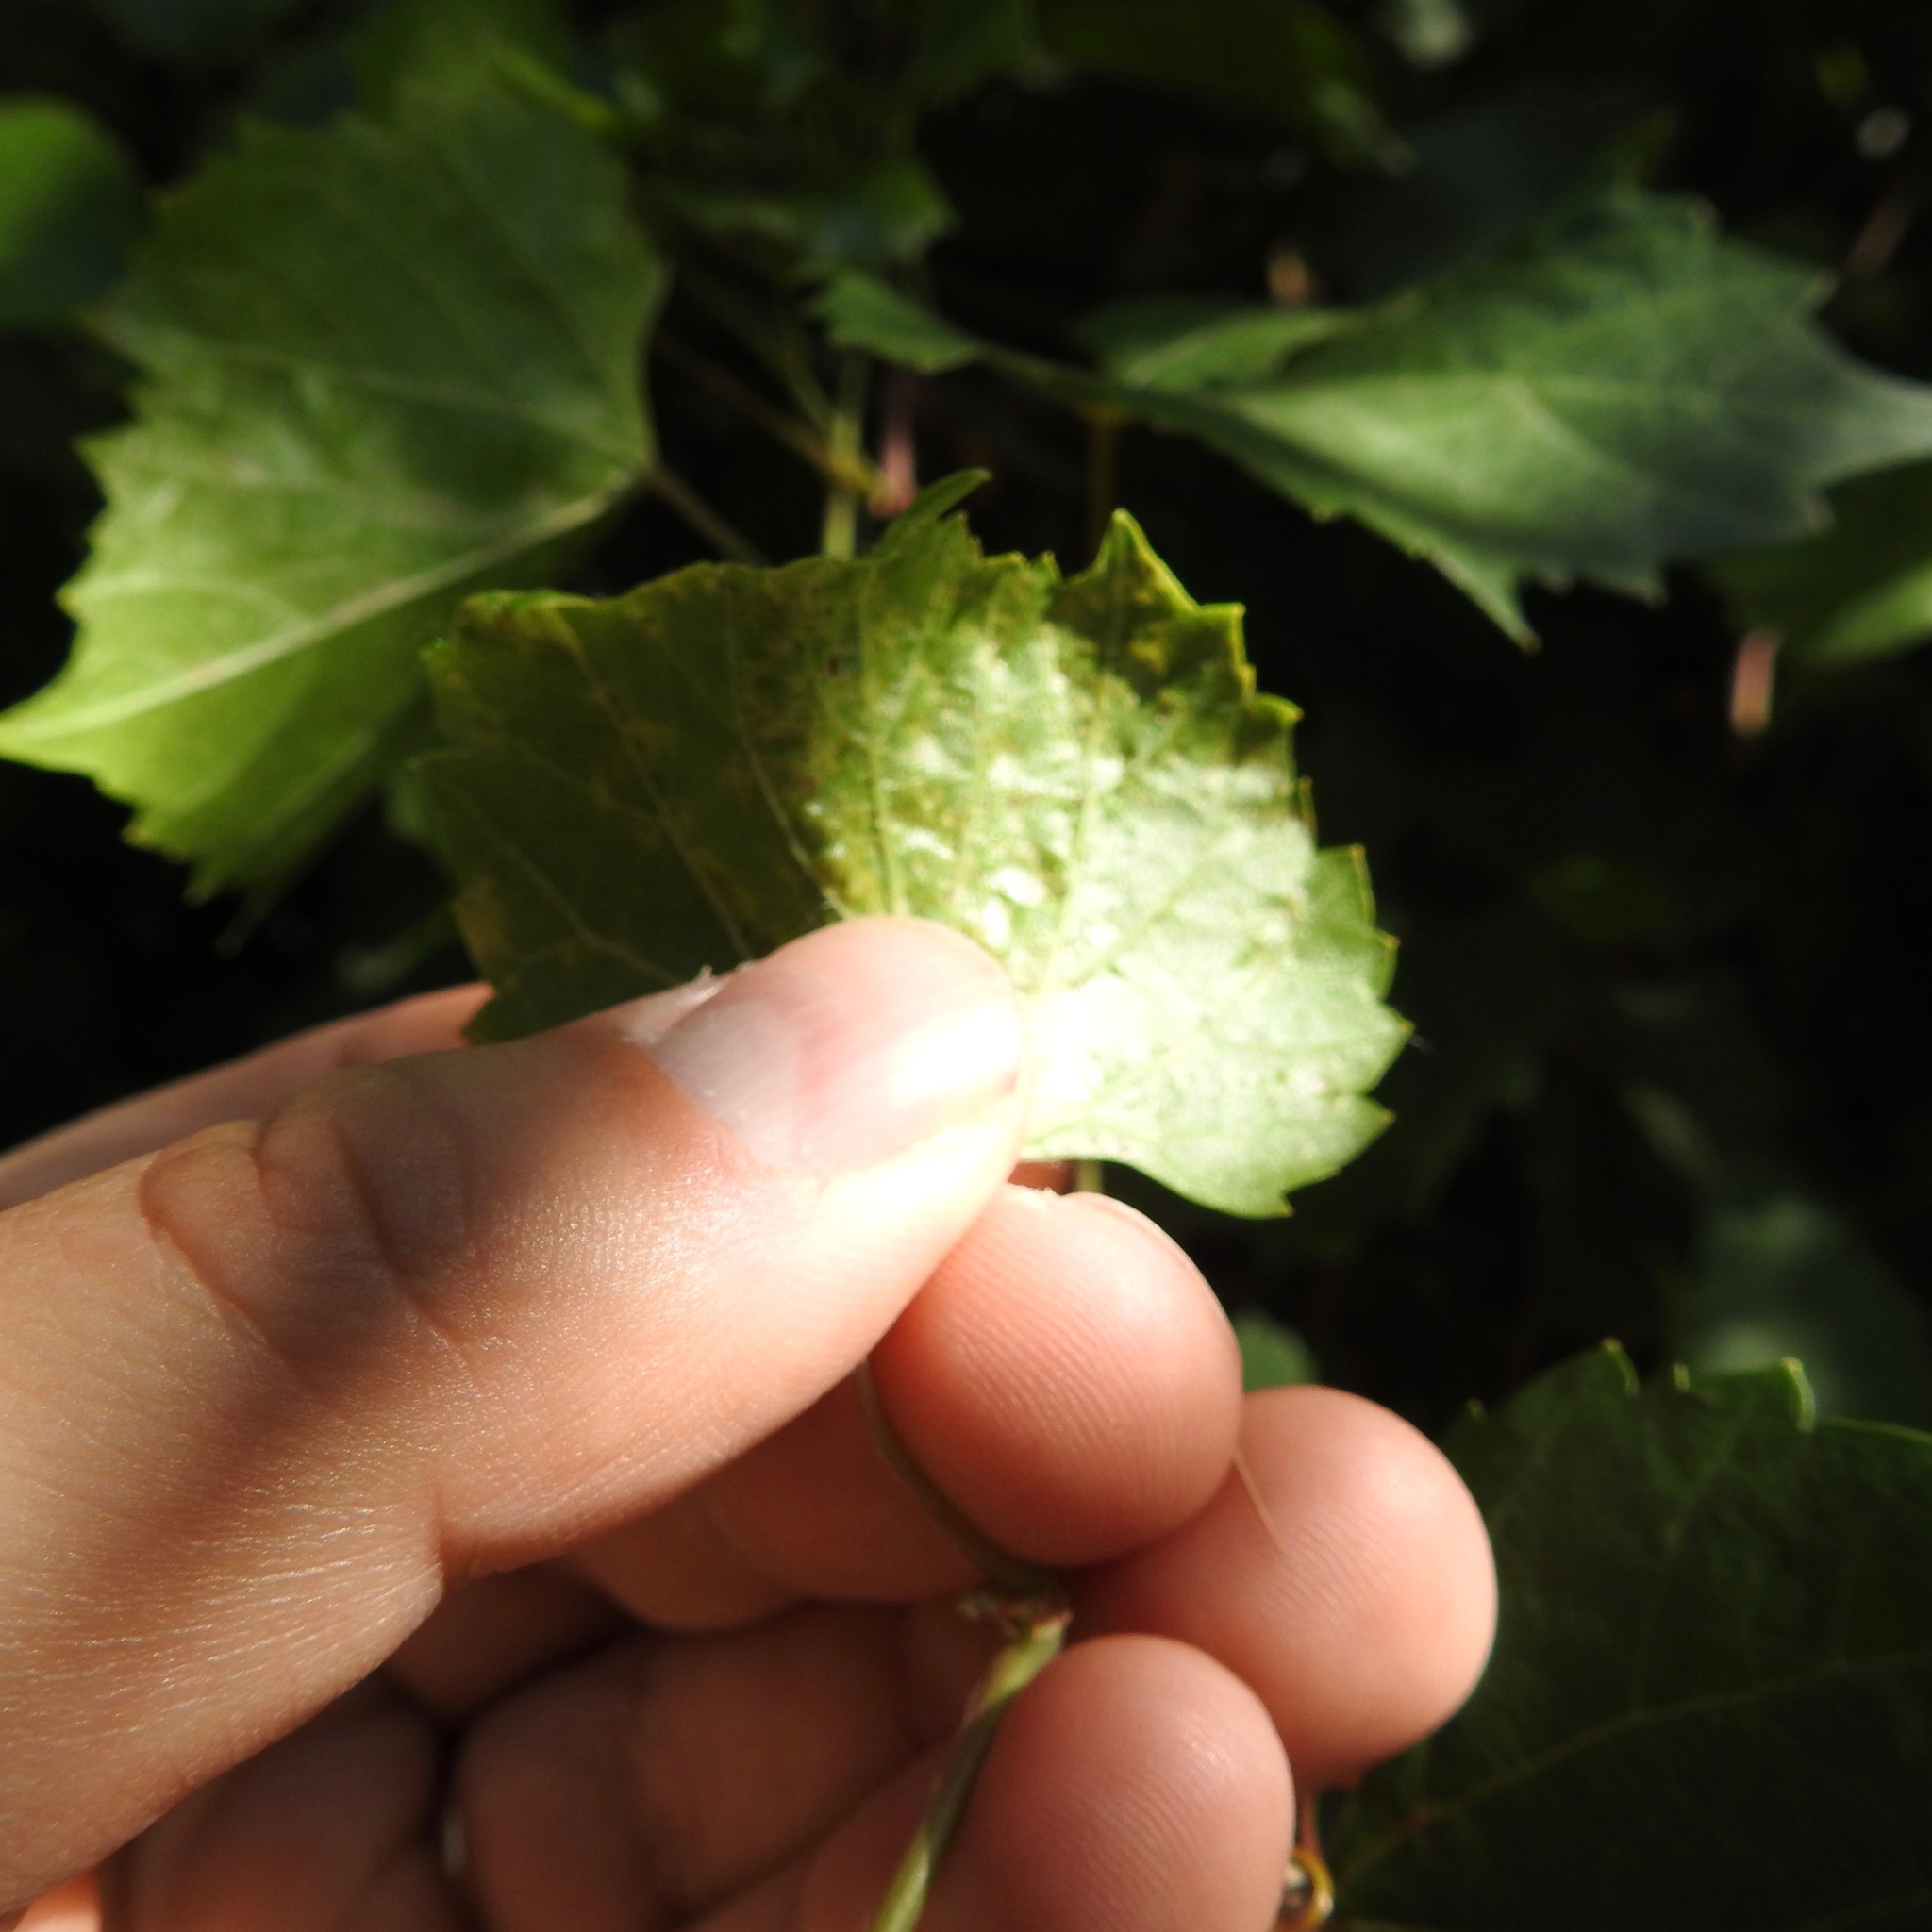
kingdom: Animalia
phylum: Arthropoda
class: Arachnida
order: Trombidiformes
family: Eriophyidae
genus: Colomerus
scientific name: Colomerus vitis
